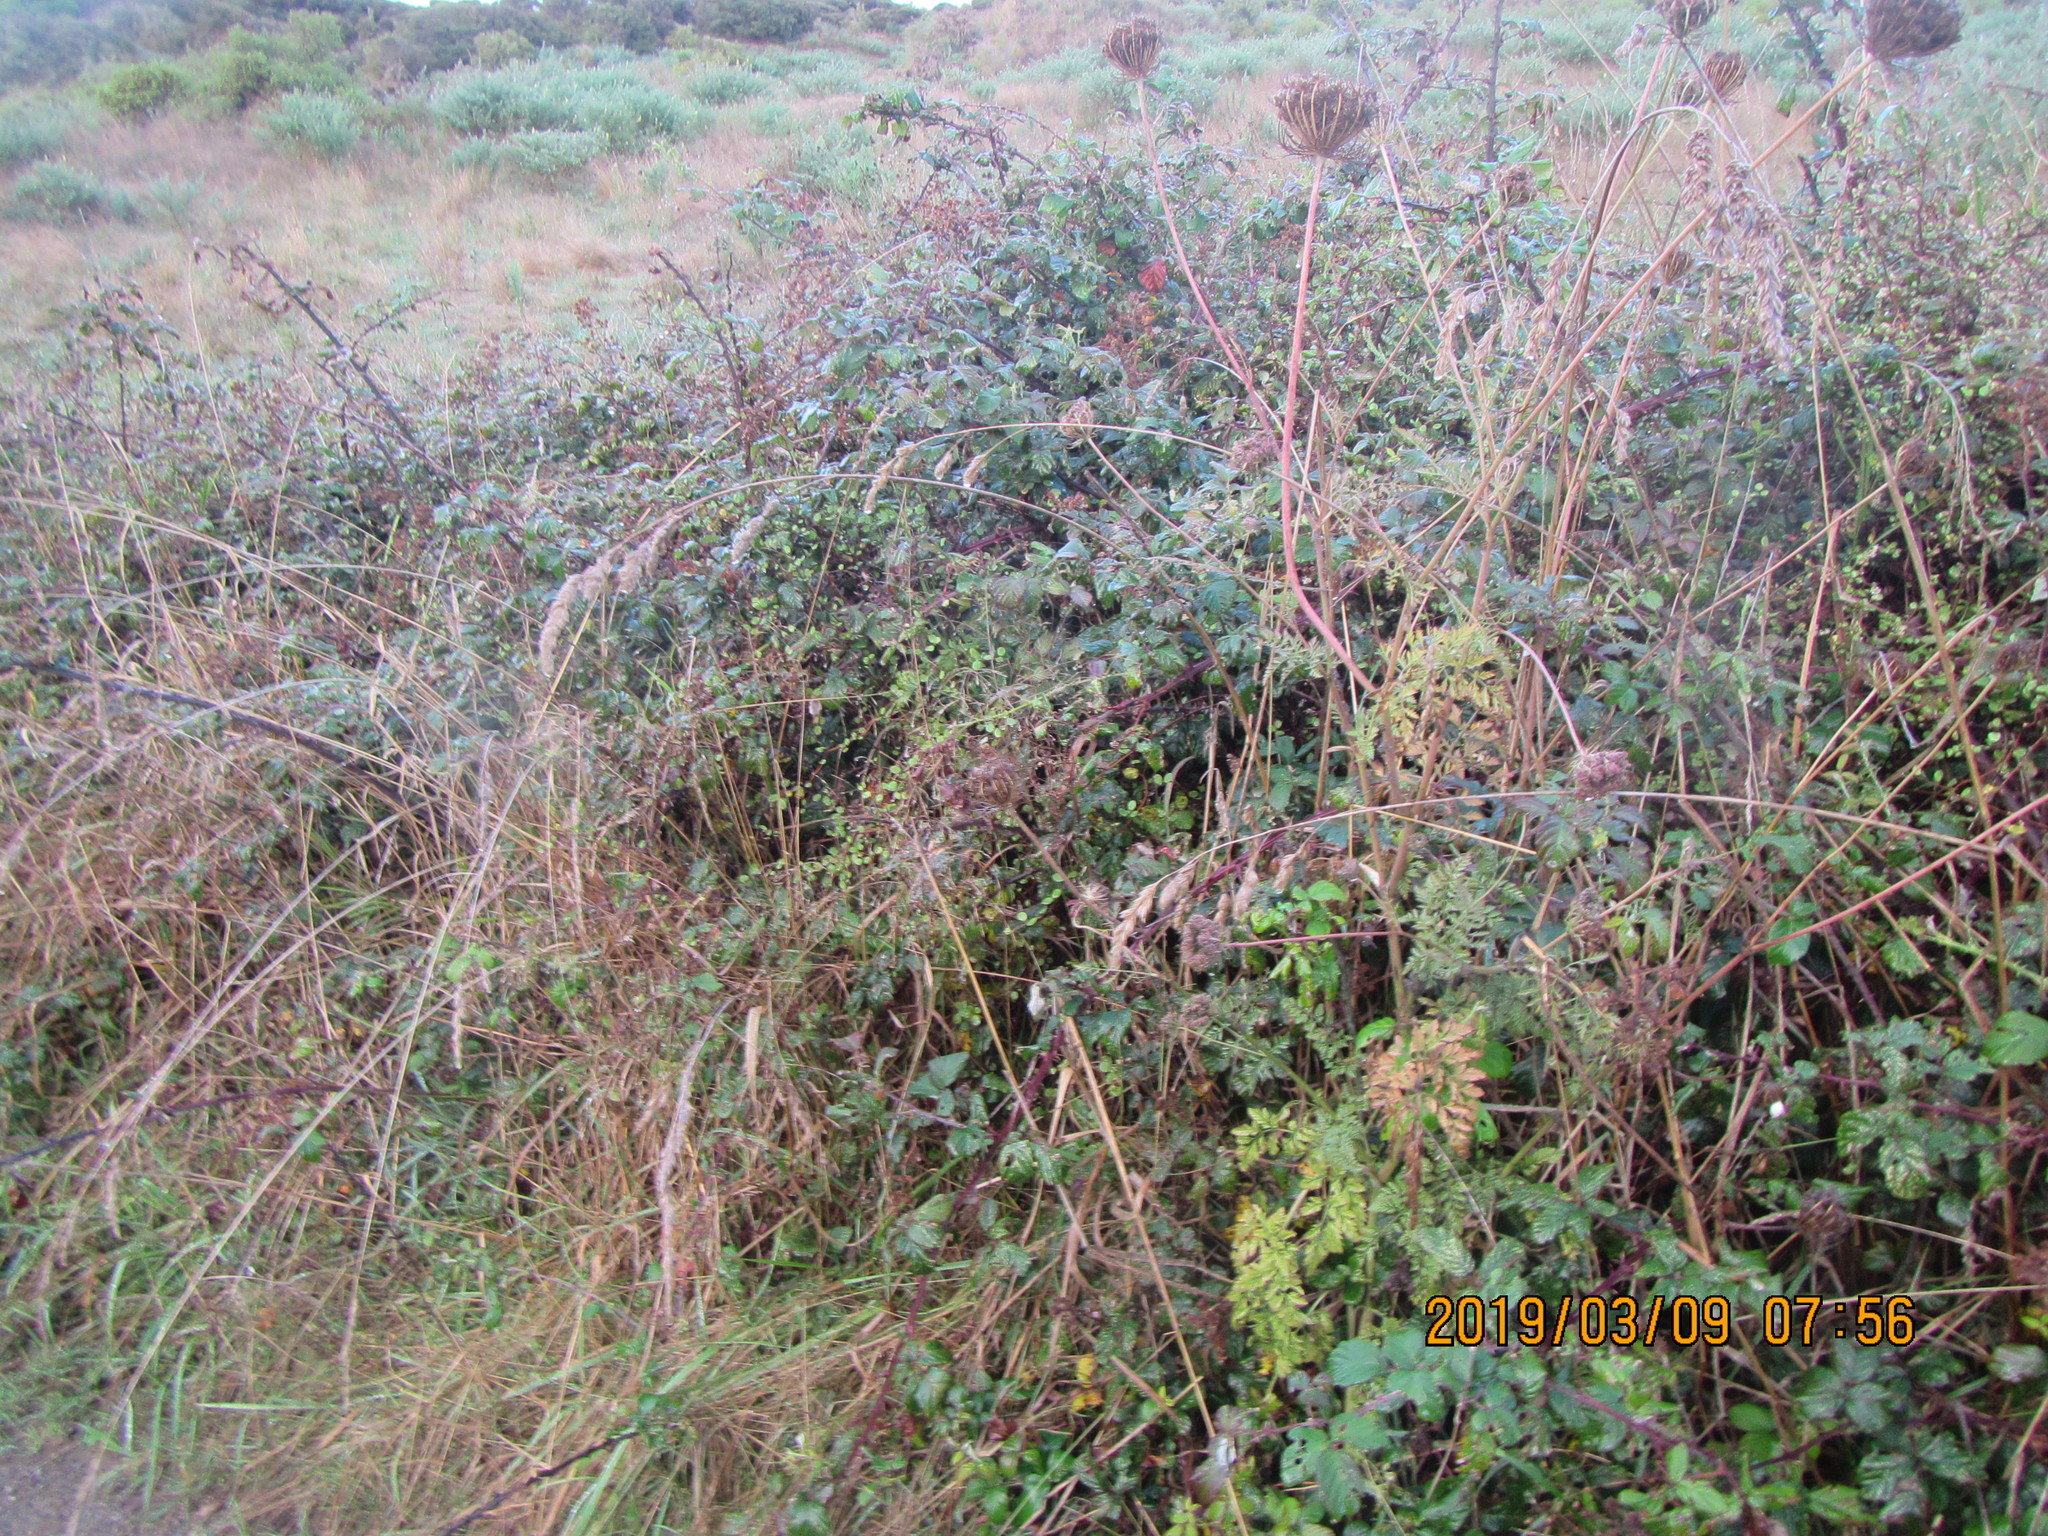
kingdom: Plantae
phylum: Tracheophyta
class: Magnoliopsida
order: Rosales
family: Rosaceae
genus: Rubus
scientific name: Rubus
